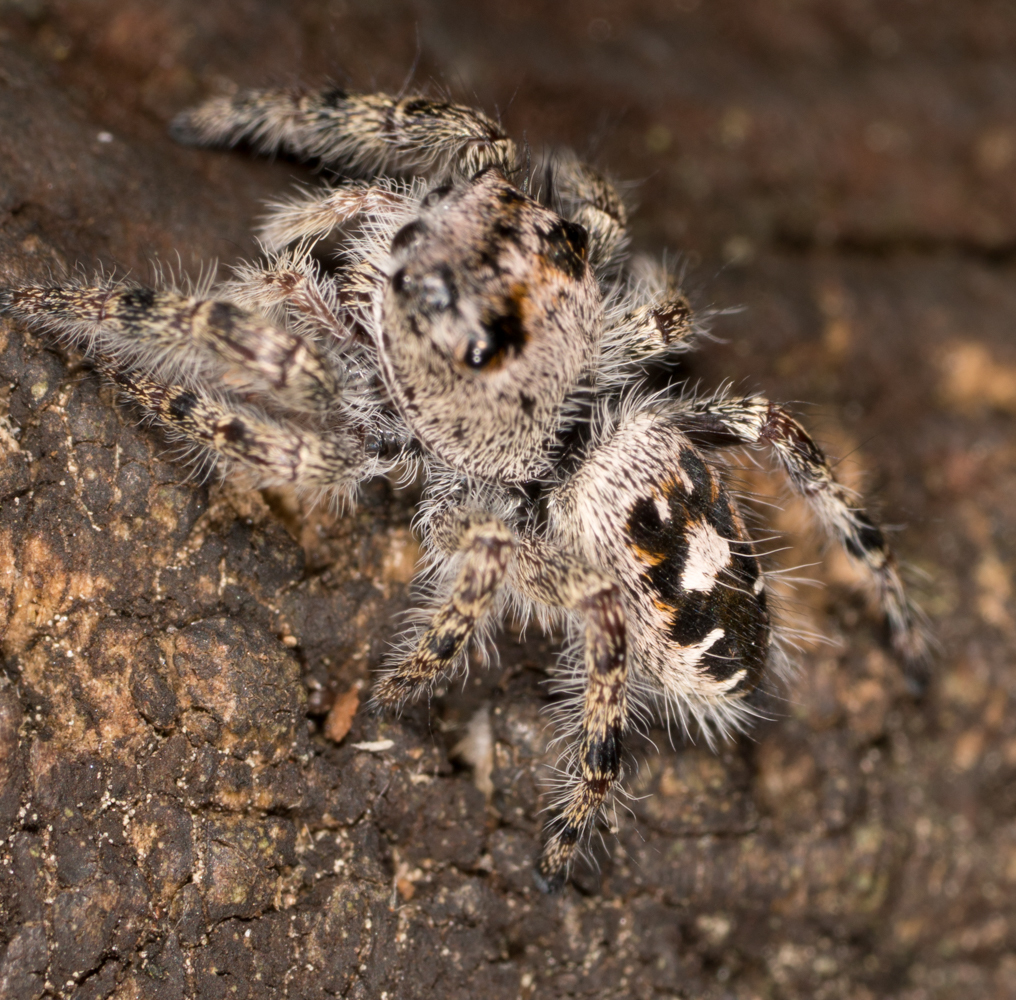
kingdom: Animalia
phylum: Arthropoda
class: Arachnida
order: Araneae
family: Salticidae
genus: Phidippus
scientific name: Phidippus putnami
